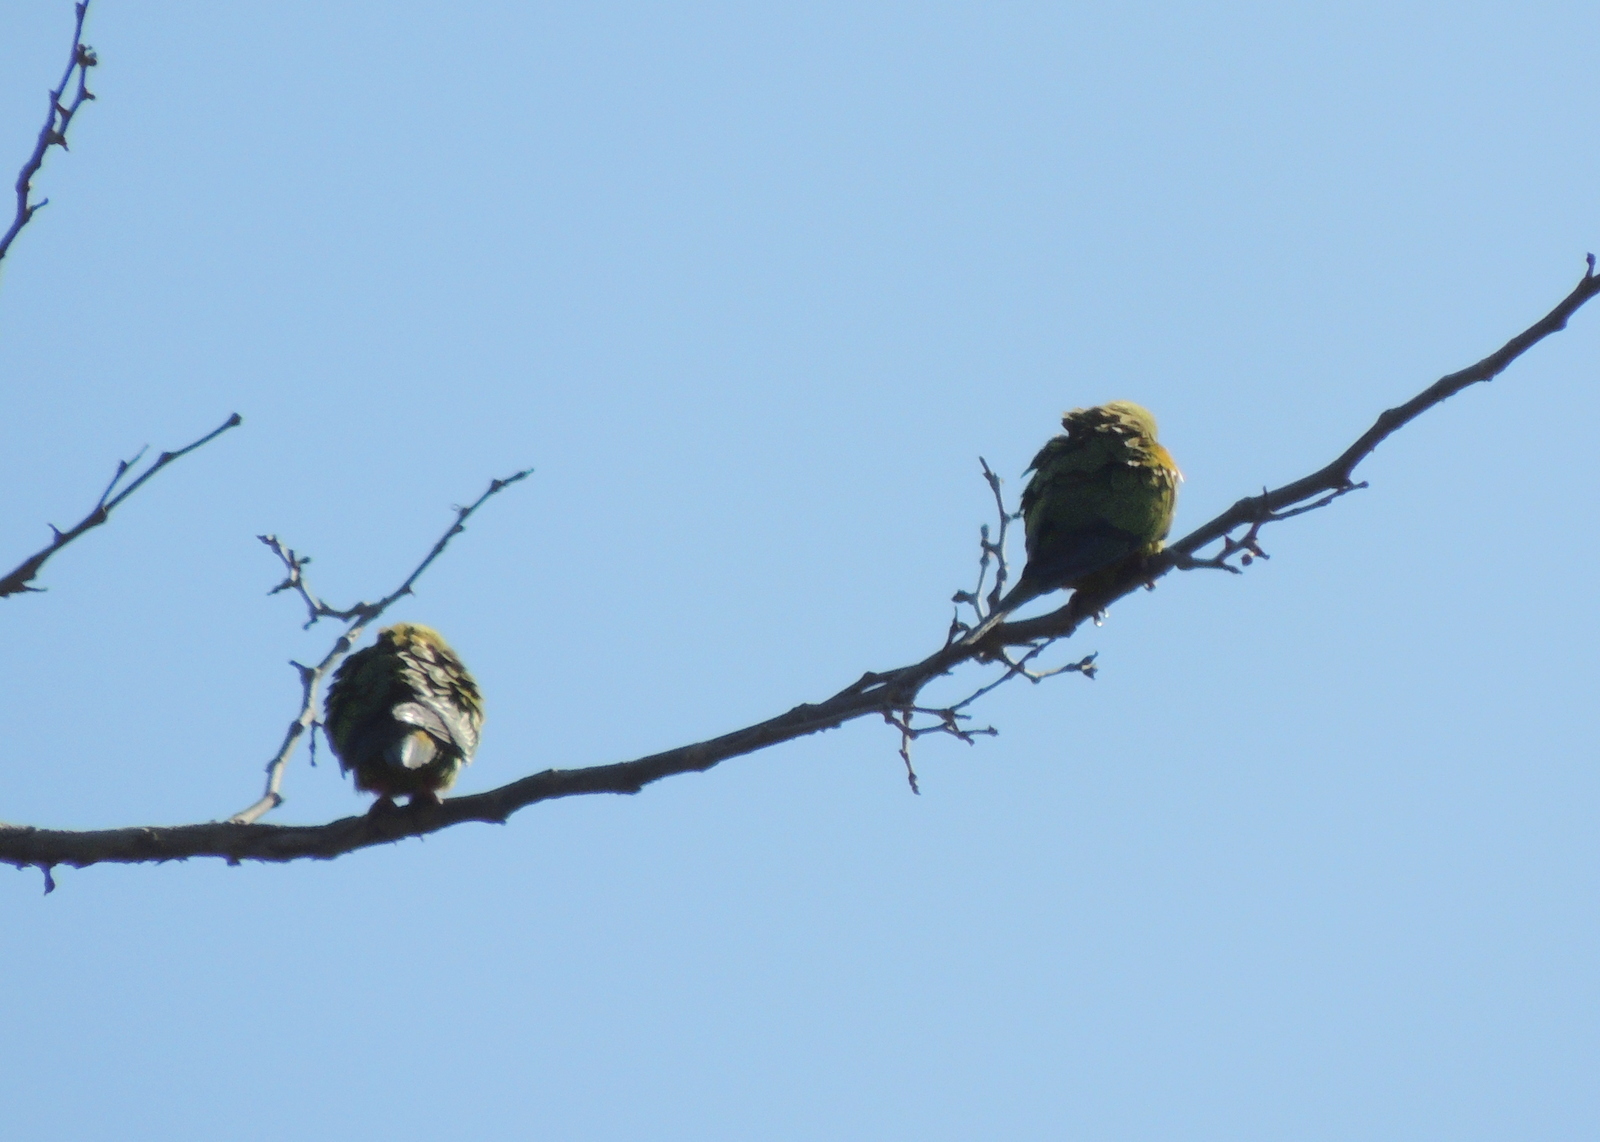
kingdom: Animalia
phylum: Chordata
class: Aves
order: Psittaciformes
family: Psittacidae
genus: Nandayus
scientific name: Nandayus nenday
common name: Nanday parakeet
